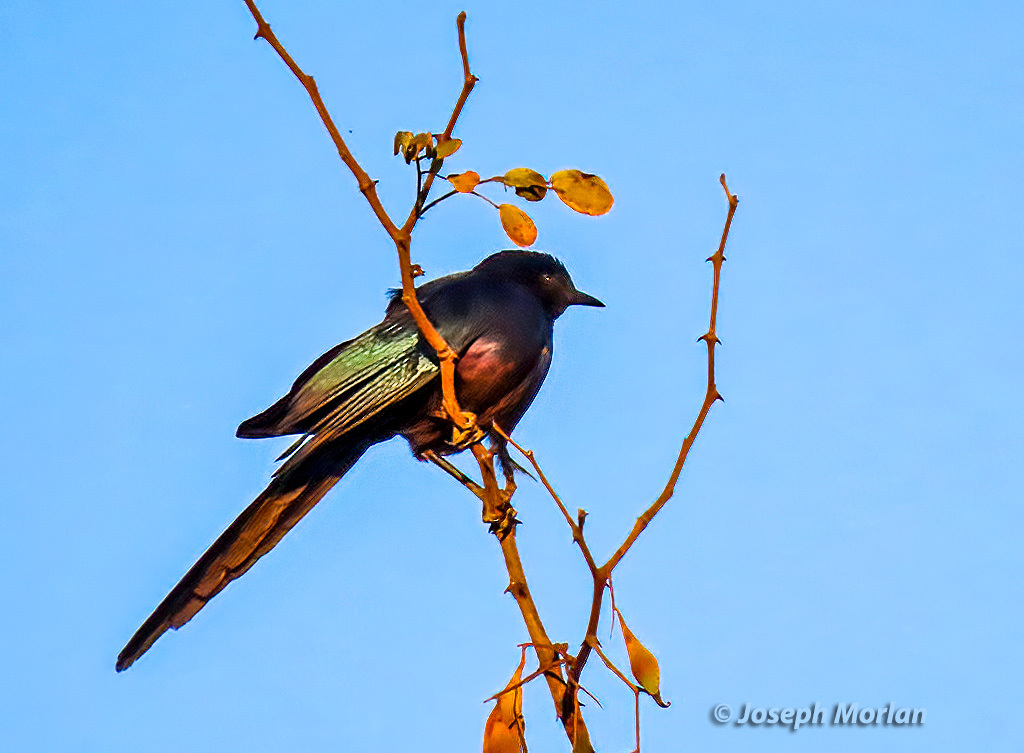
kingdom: Animalia
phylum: Chordata
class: Aves
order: Passeriformes
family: Sturnidae
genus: Lamprotornis
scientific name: Lamprotornis mevesii
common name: Meves's starling
